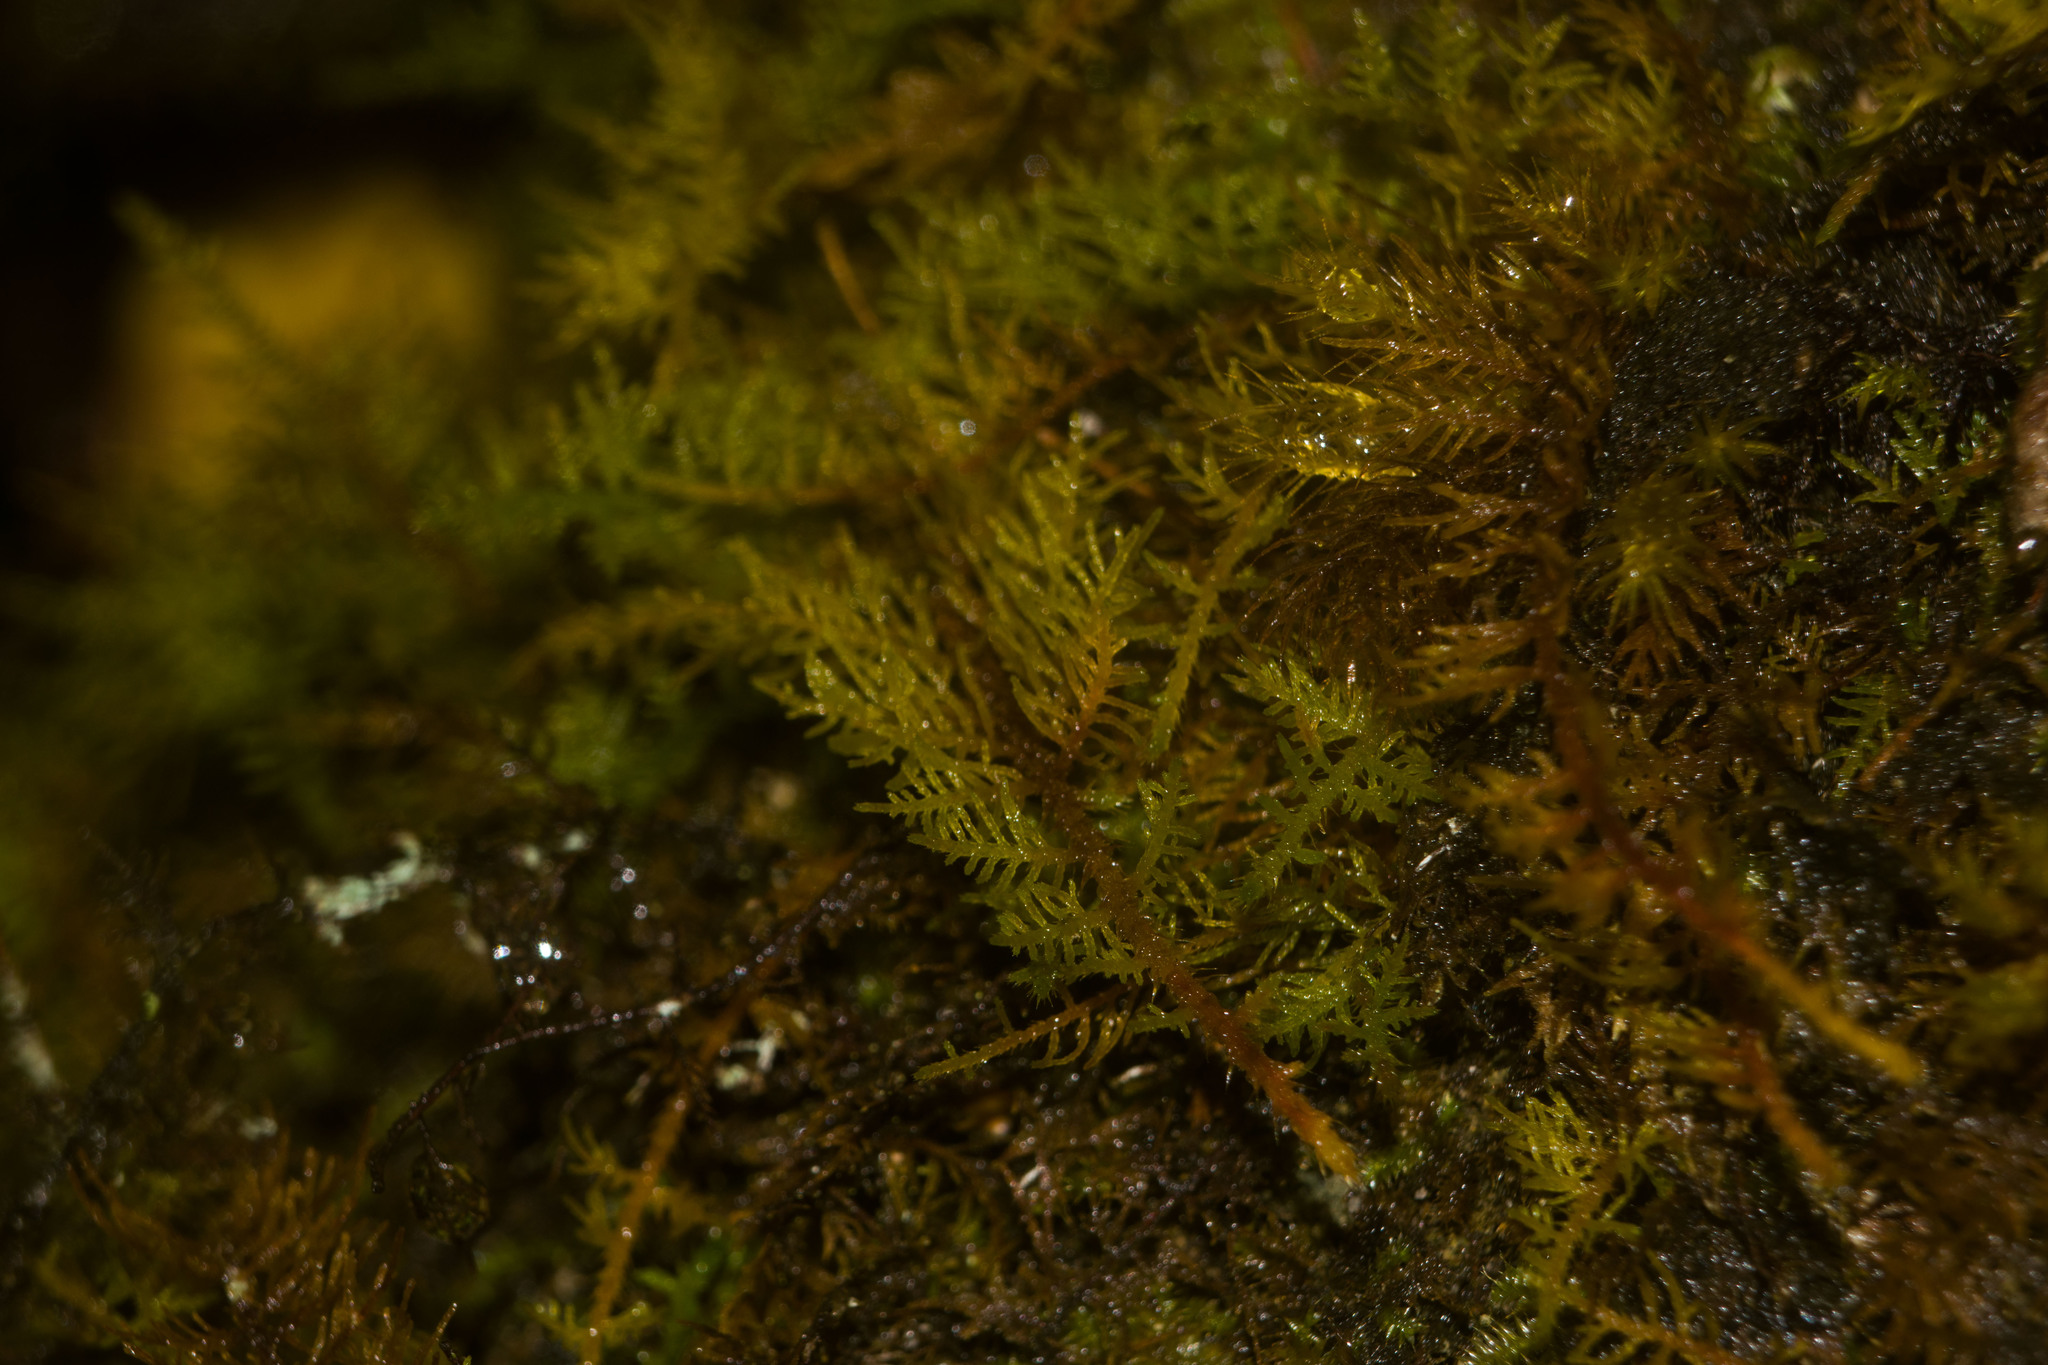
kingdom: Plantae
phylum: Bryophyta
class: Bryopsida
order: Hypnales
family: Thuidiaceae
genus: Thuidium
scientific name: Thuidium cymbifolium
